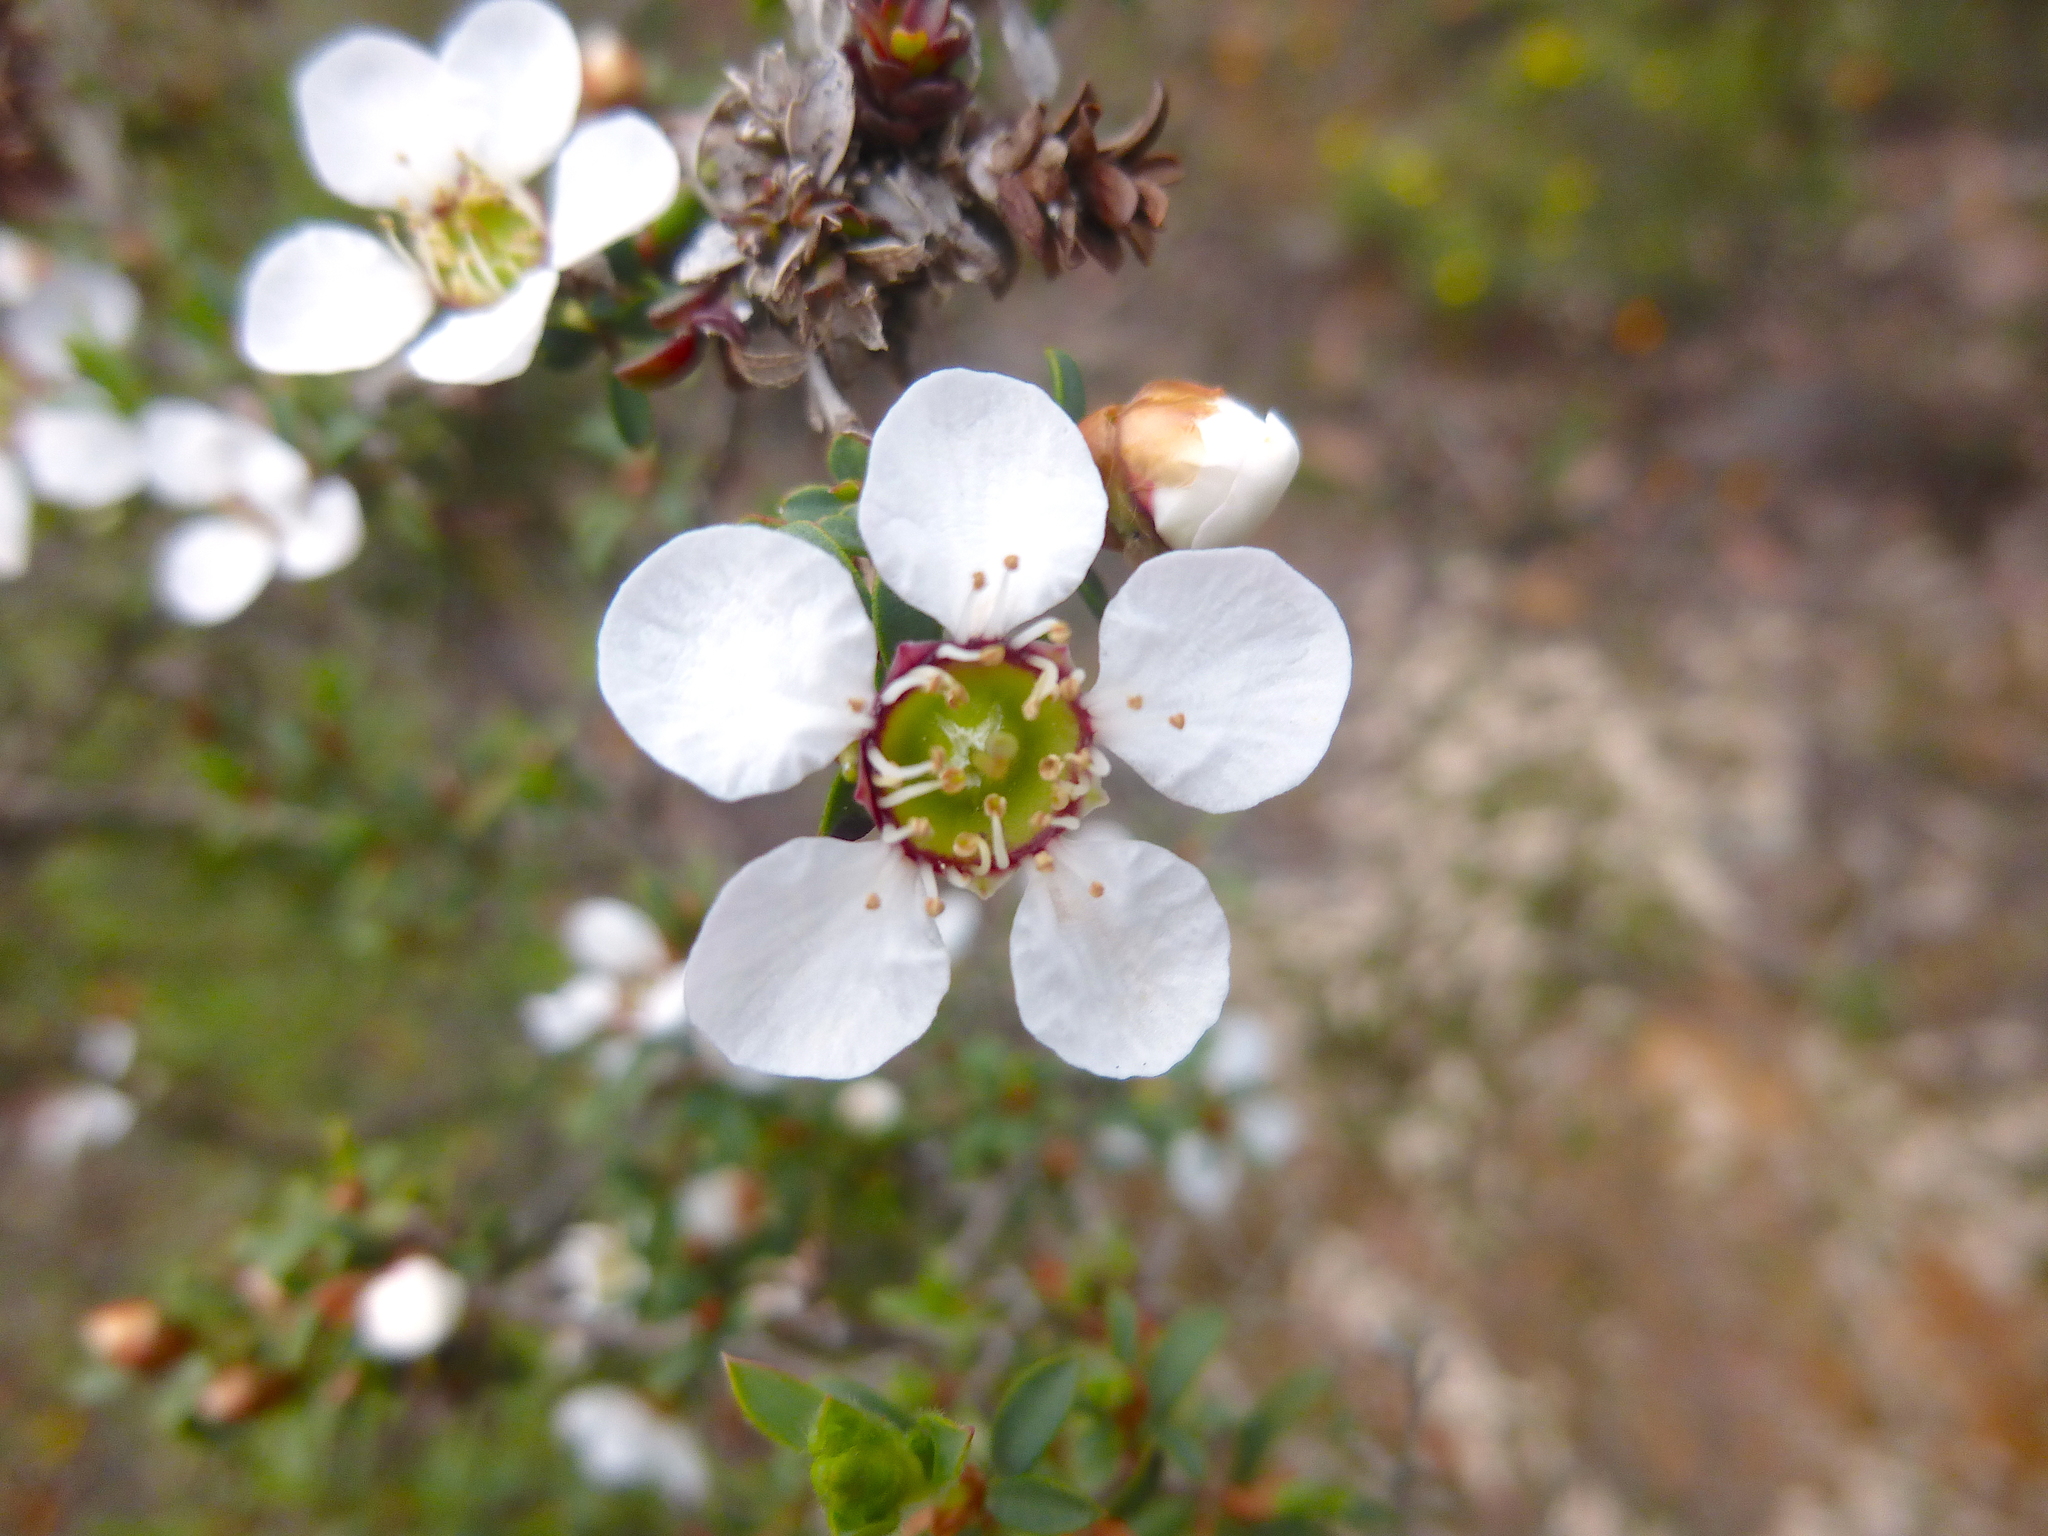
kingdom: Plantae
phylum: Tracheophyta
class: Magnoliopsida
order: Myrtales
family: Myrtaceae
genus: Leptospermum
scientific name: Leptospermum myrsinoides
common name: Heath teatree
